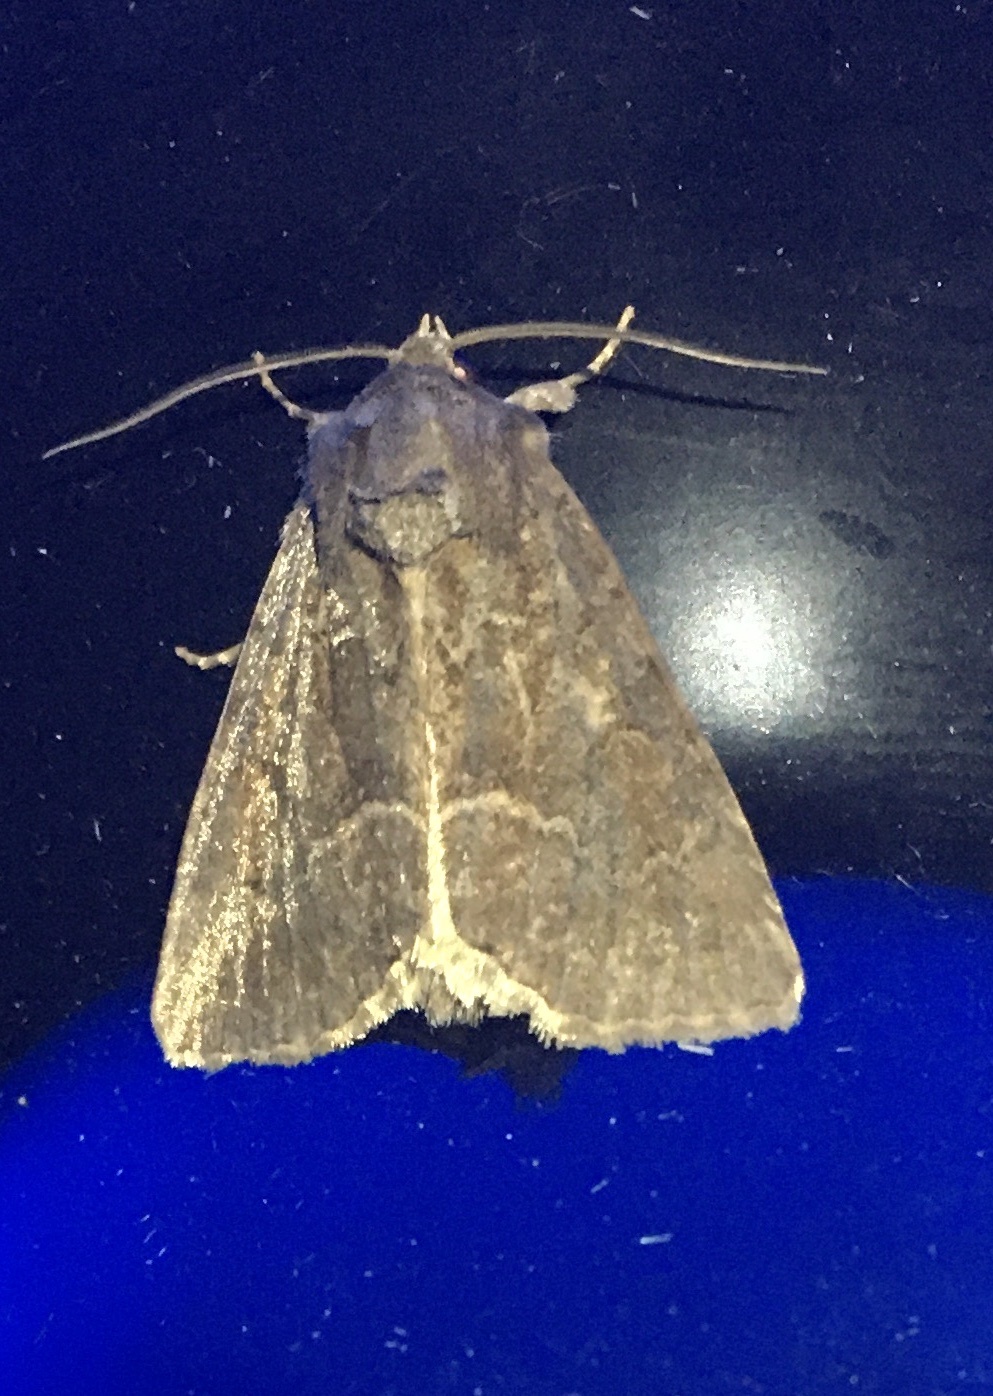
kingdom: Animalia
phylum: Arthropoda
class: Insecta
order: Lepidoptera
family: Noctuidae
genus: Thalpophila
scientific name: Thalpophila matura
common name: Straw underwing
